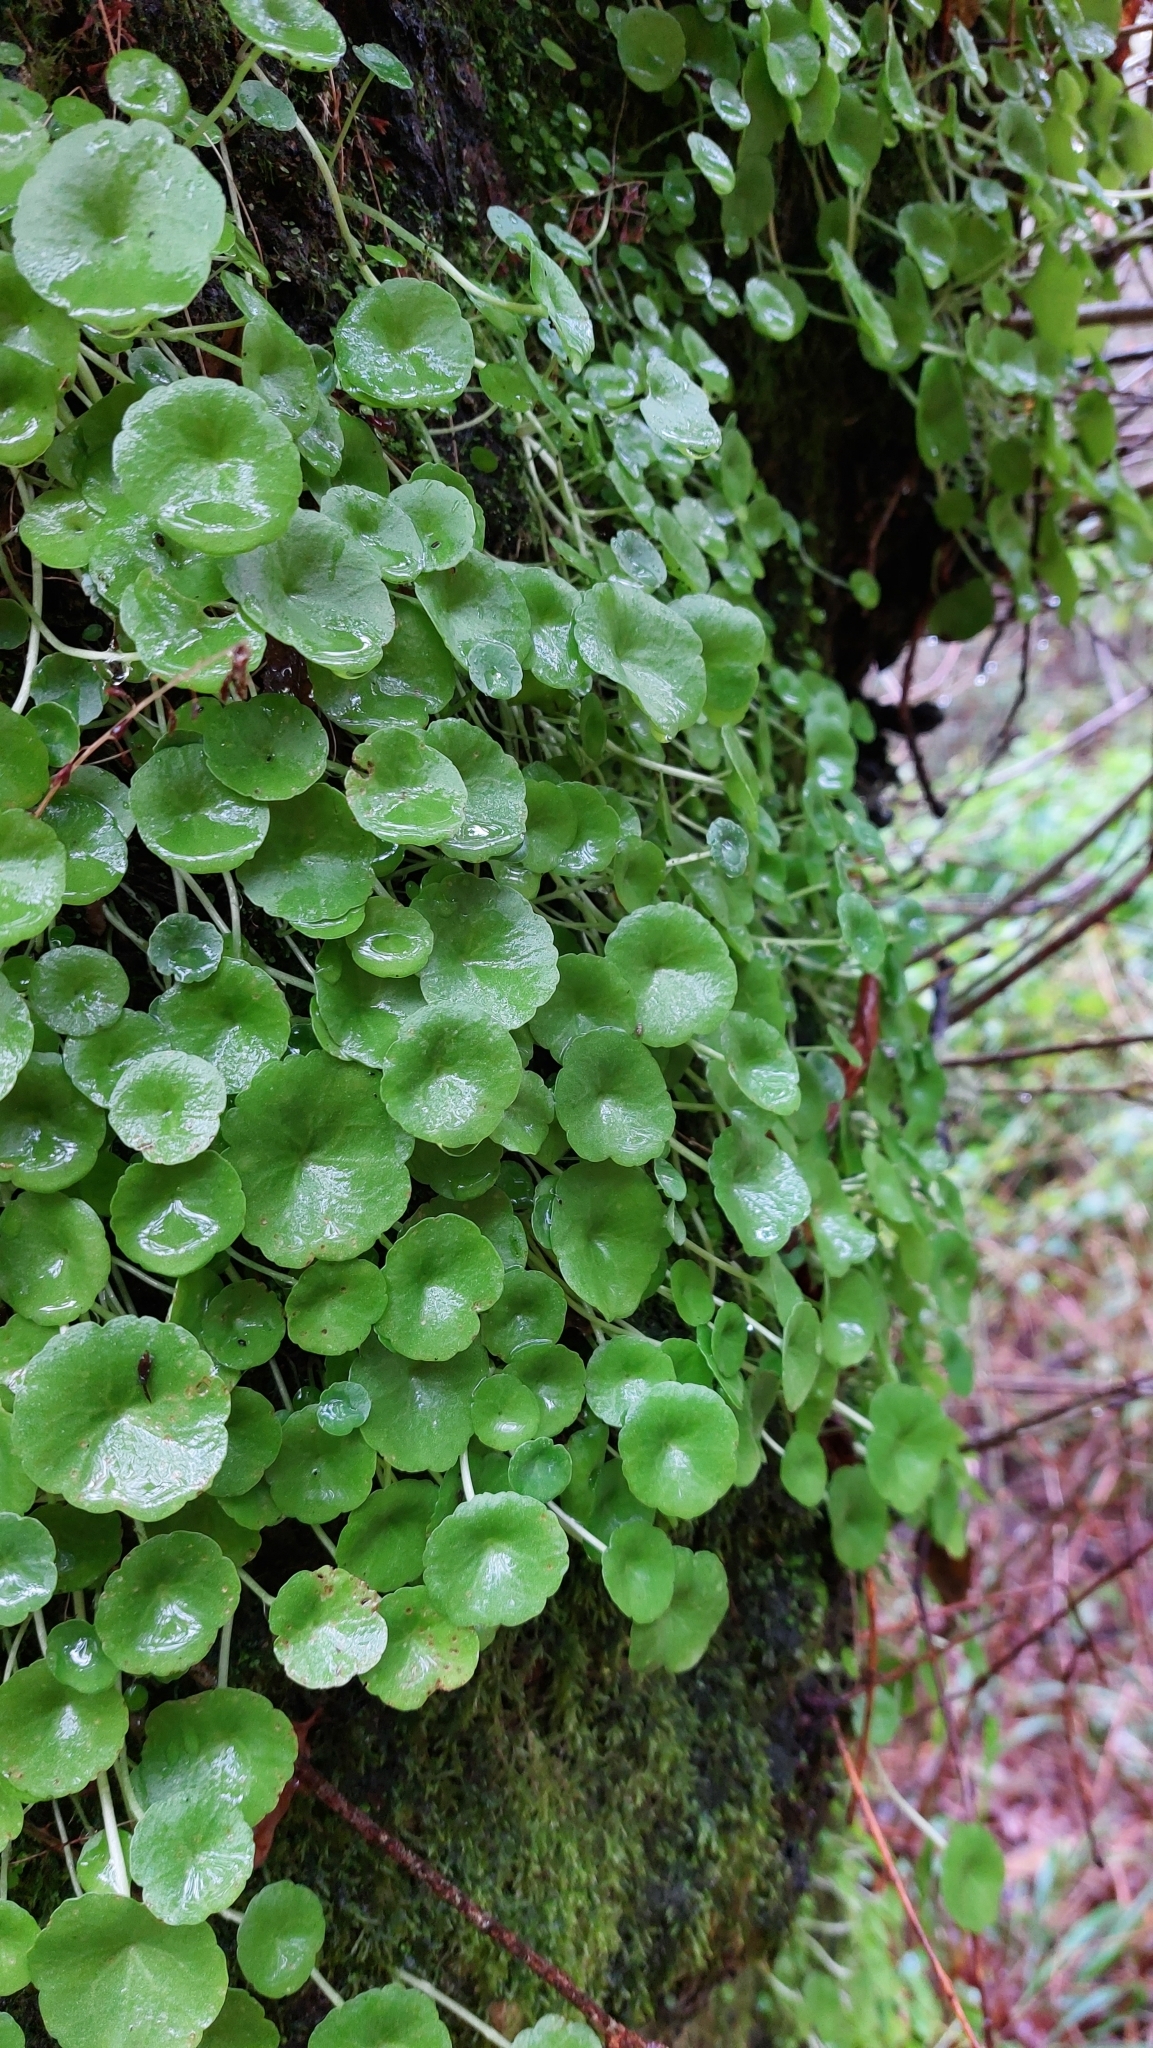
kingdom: Plantae
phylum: Tracheophyta
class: Magnoliopsida
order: Saxifragales
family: Crassulaceae
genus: Umbilicus
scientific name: Umbilicus rupestris
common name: Navelwort
